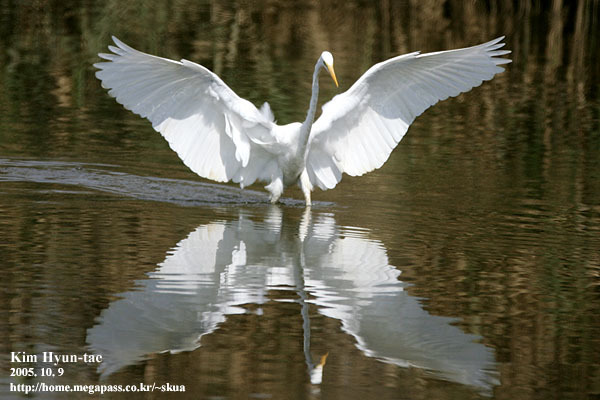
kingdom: Animalia
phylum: Chordata
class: Aves
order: Pelecaniformes
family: Ardeidae
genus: Ardea
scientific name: Ardea alba
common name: Great egret
